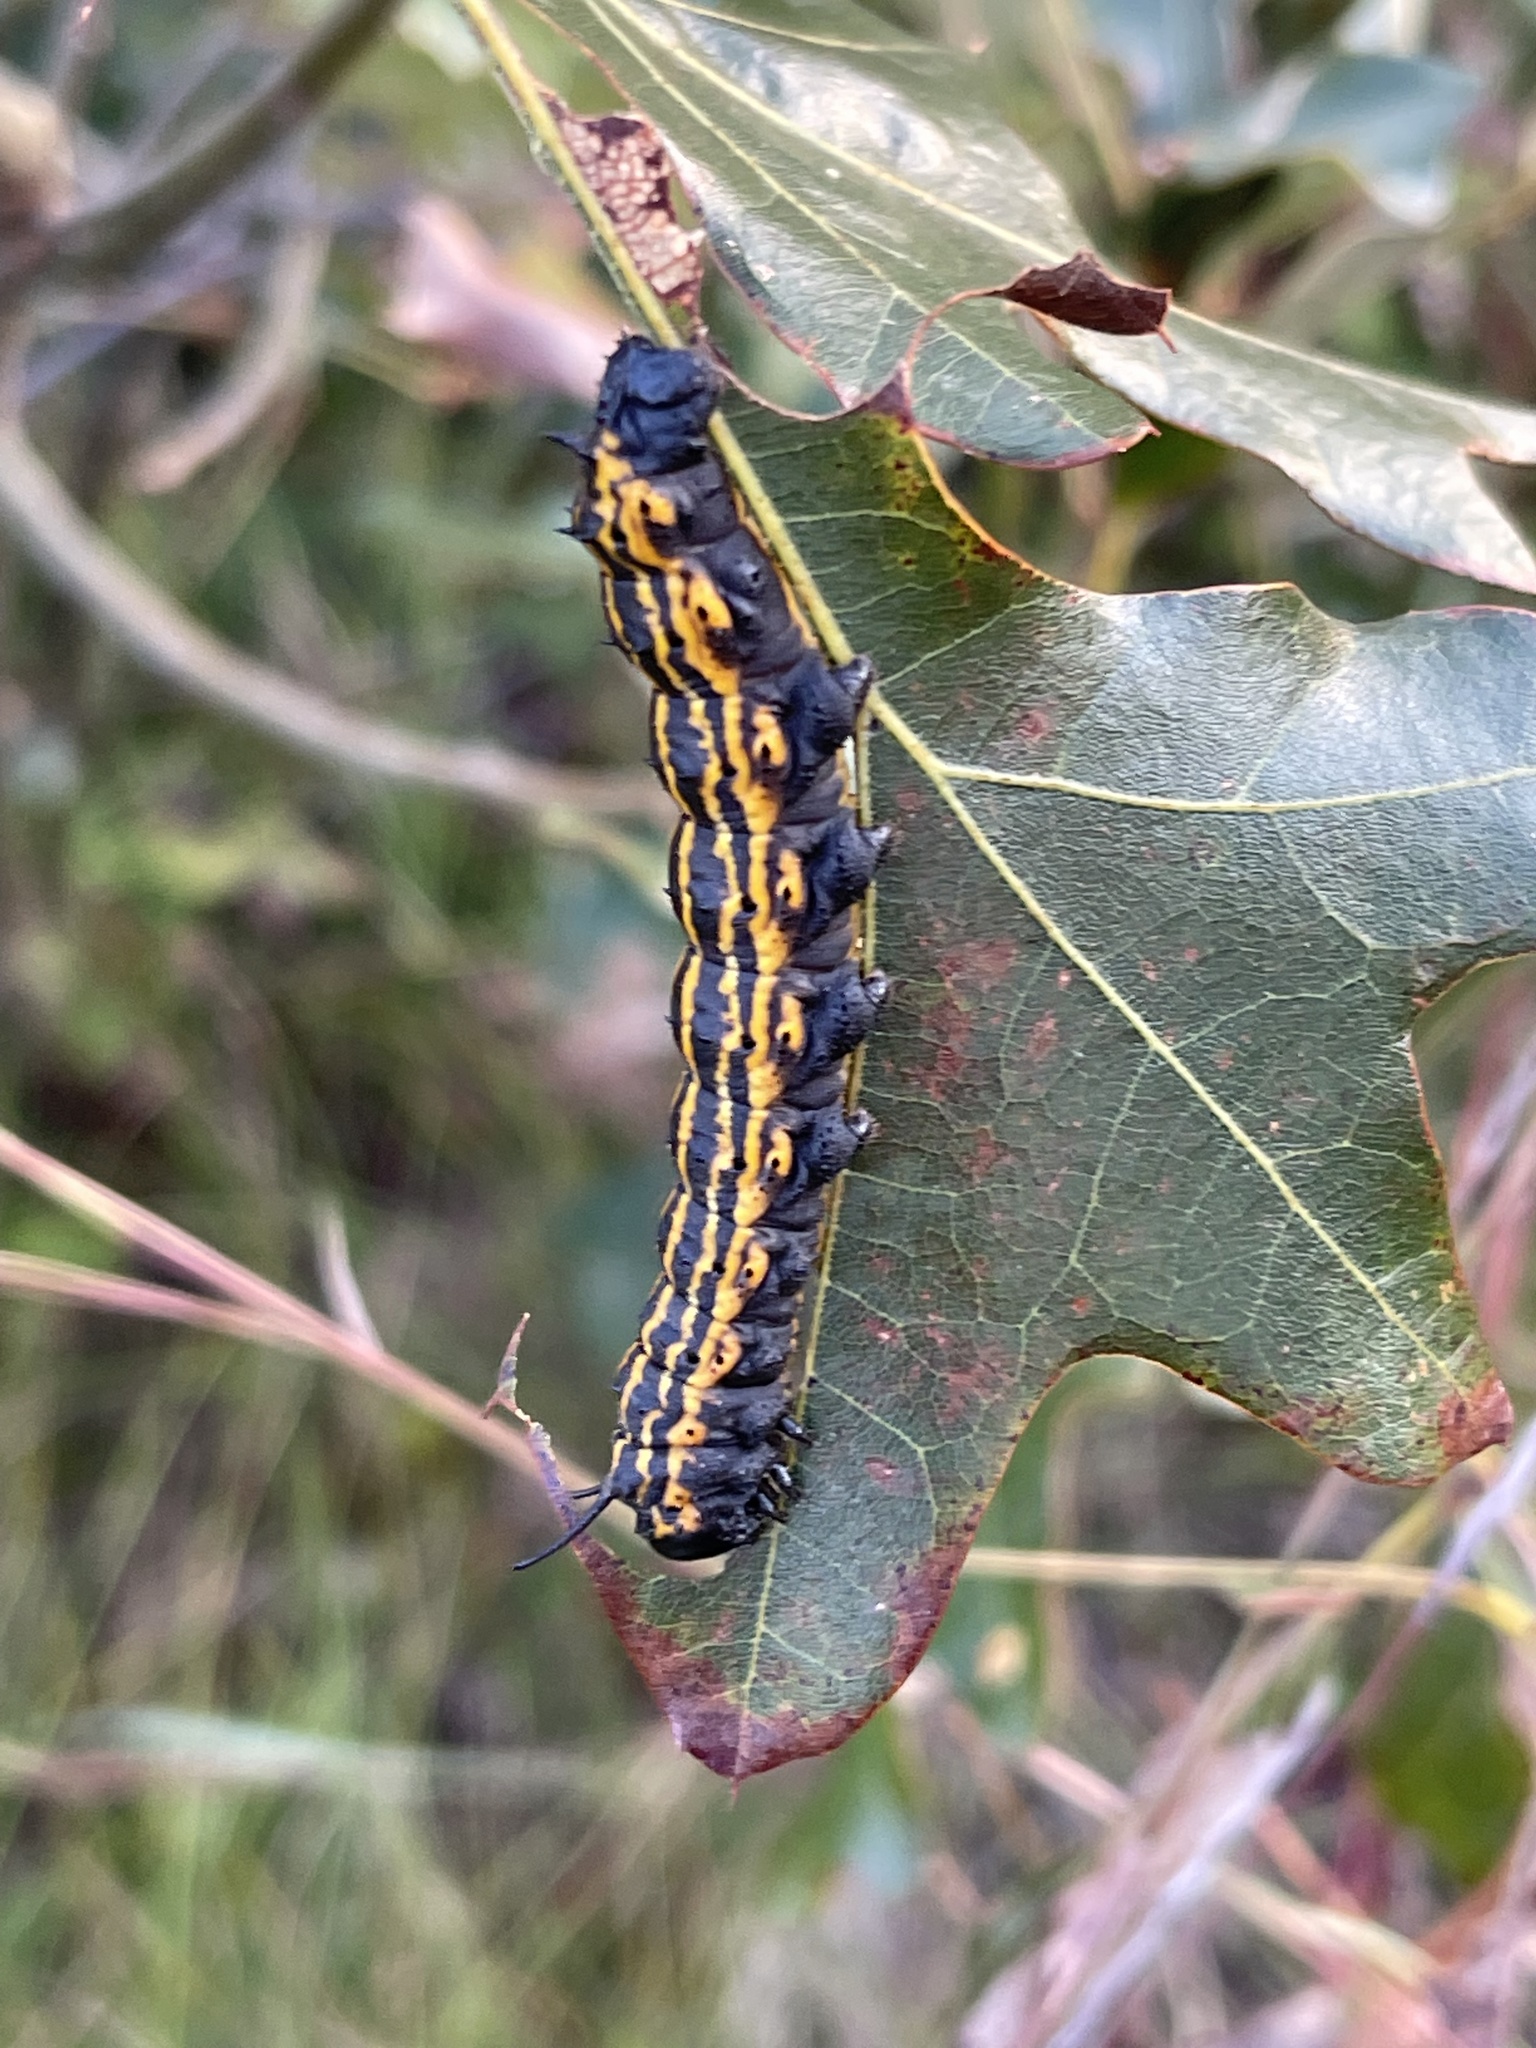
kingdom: Animalia
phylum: Arthropoda
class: Insecta
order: Lepidoptera
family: Saturniidae
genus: Anisota
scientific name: Anisota senatoria
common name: Orange-striped oakworm moth
